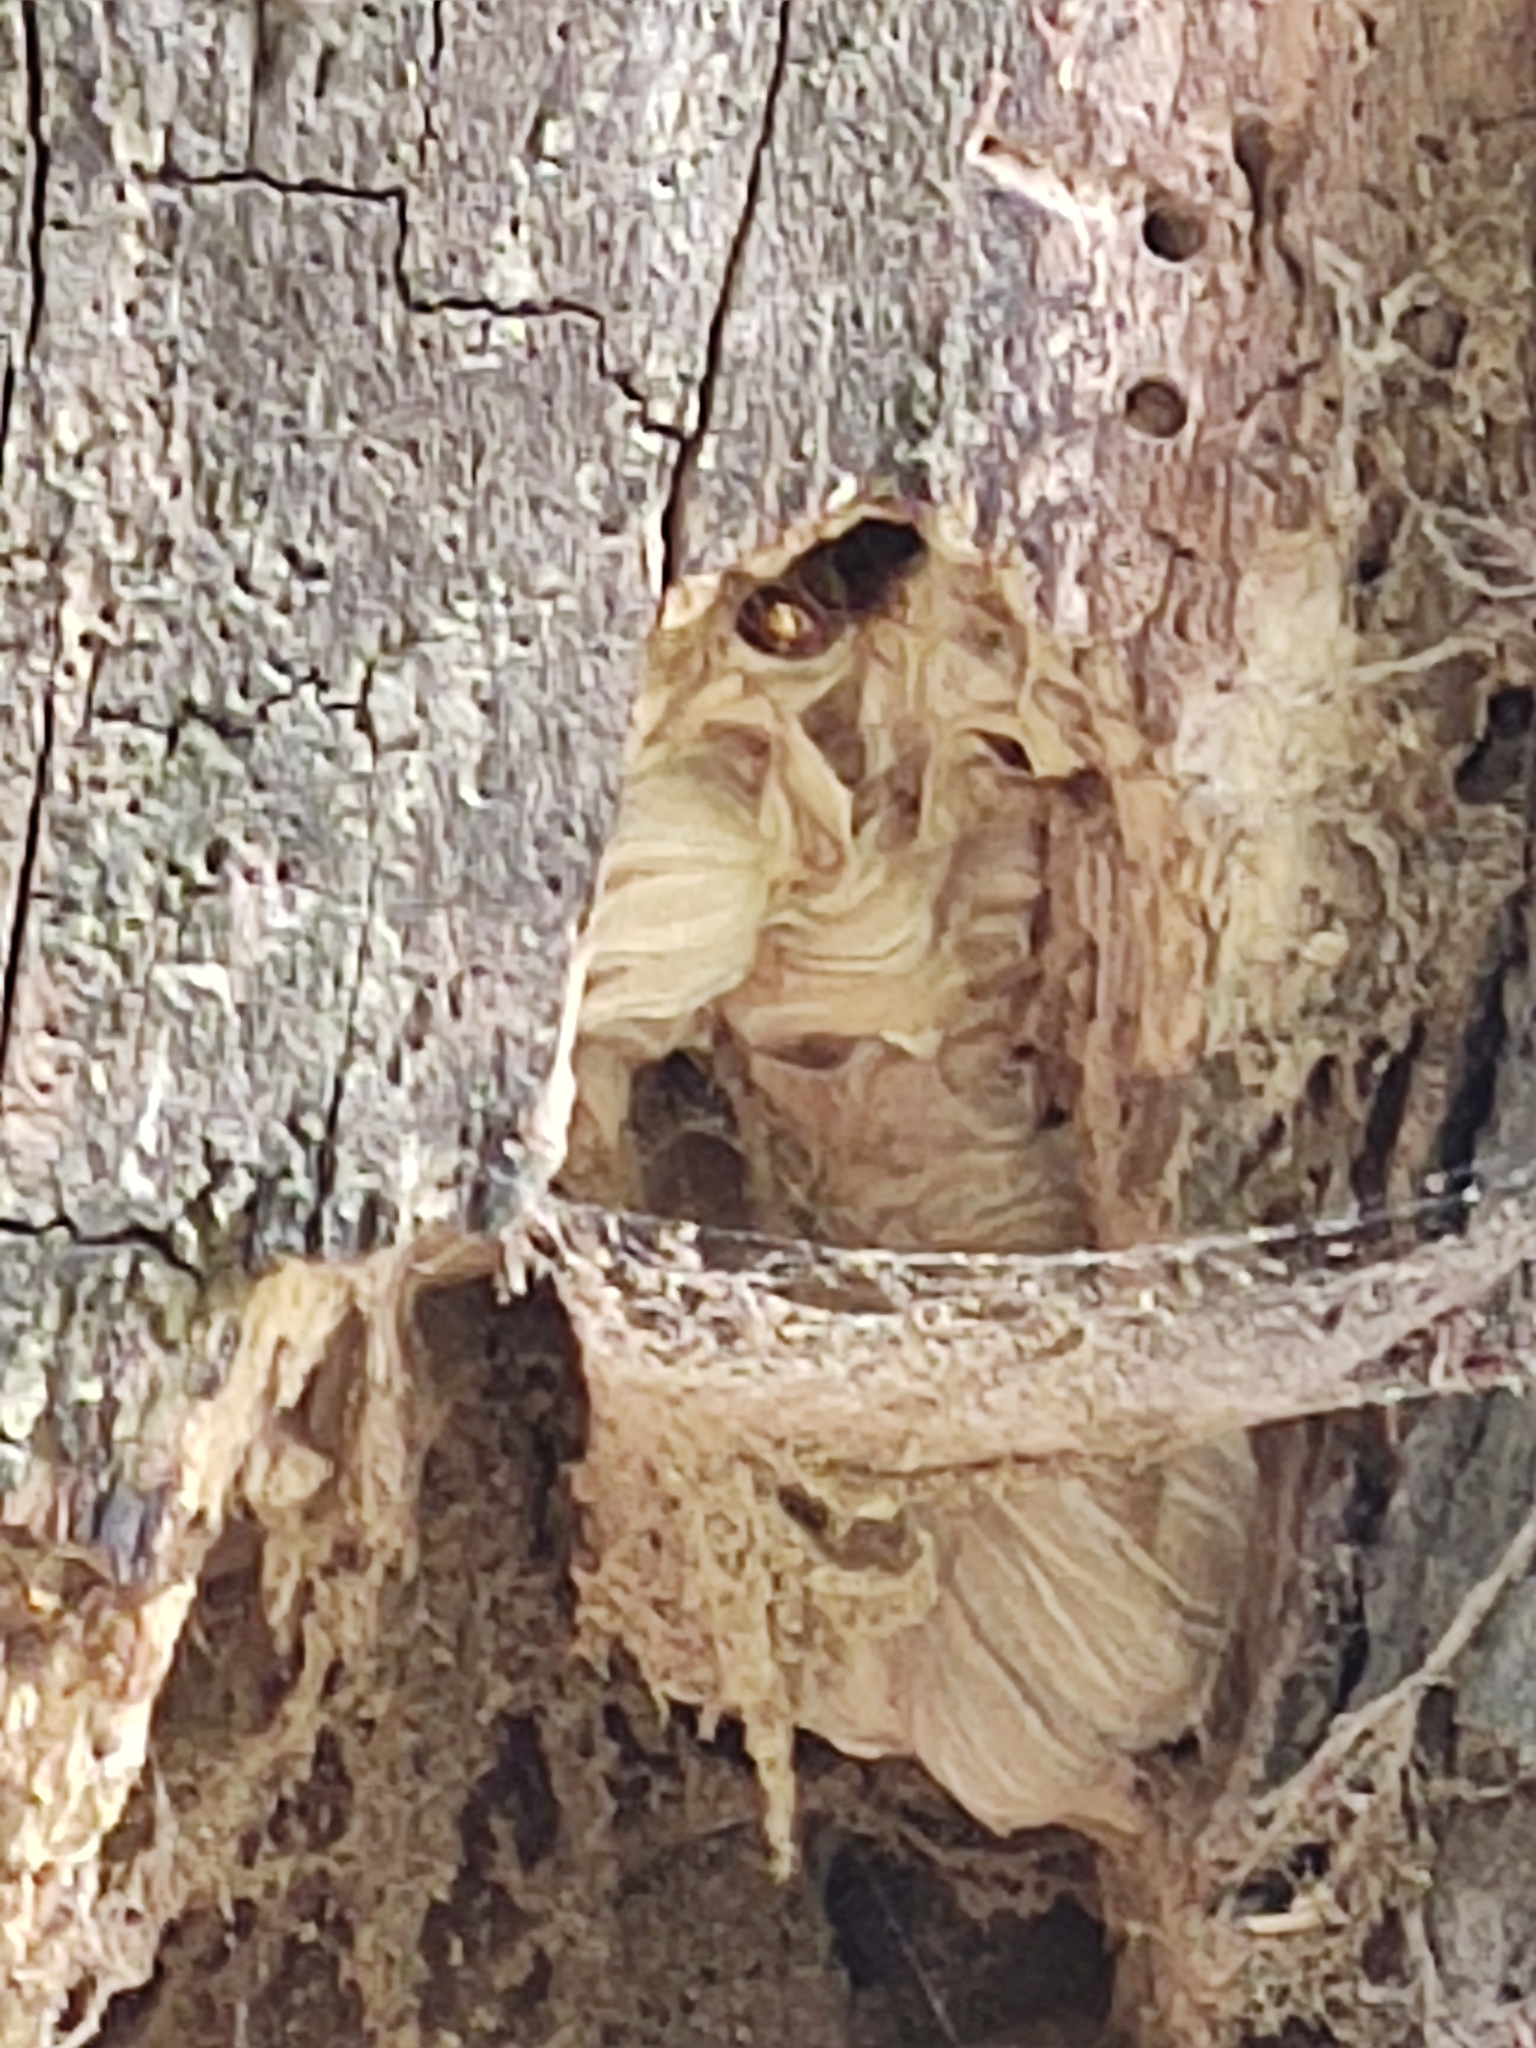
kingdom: Animalia
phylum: Arthropoda
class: Insecta
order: Hymenoptera
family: Vespidae
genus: Vespa
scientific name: Vespa crabro
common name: Hornet
